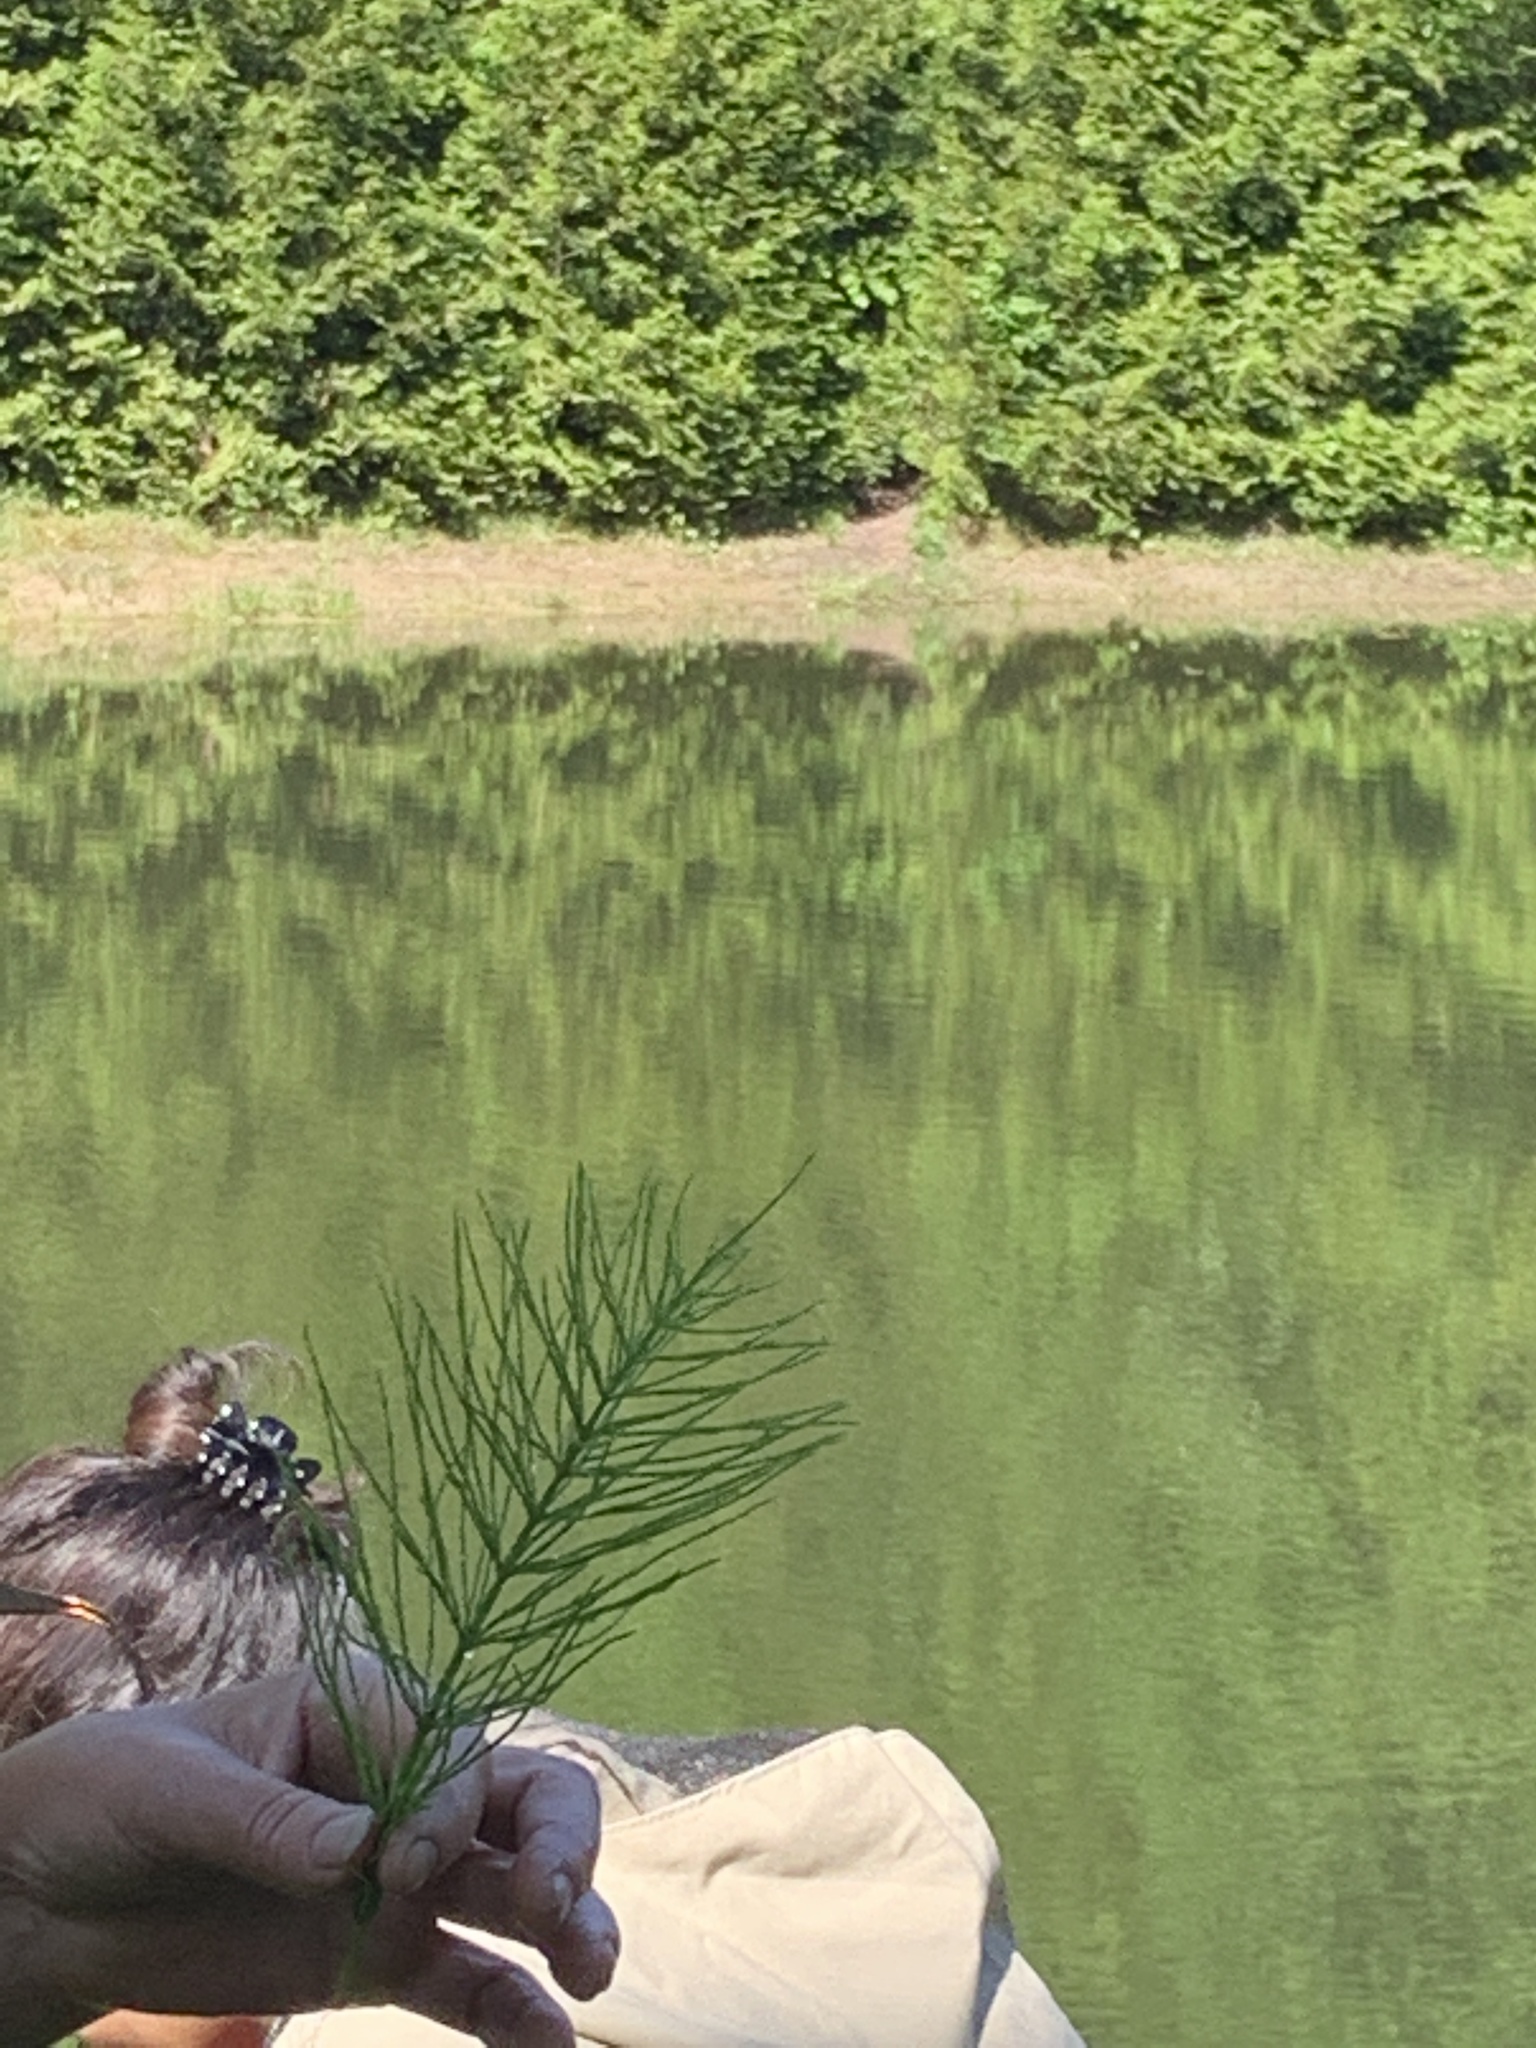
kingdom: Plantae
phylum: Tracheophyta
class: Polypodiopsida
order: Equisetales
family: Equisetaceae
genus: Equisetum
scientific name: Equisetum arvense
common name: Field horsetail
